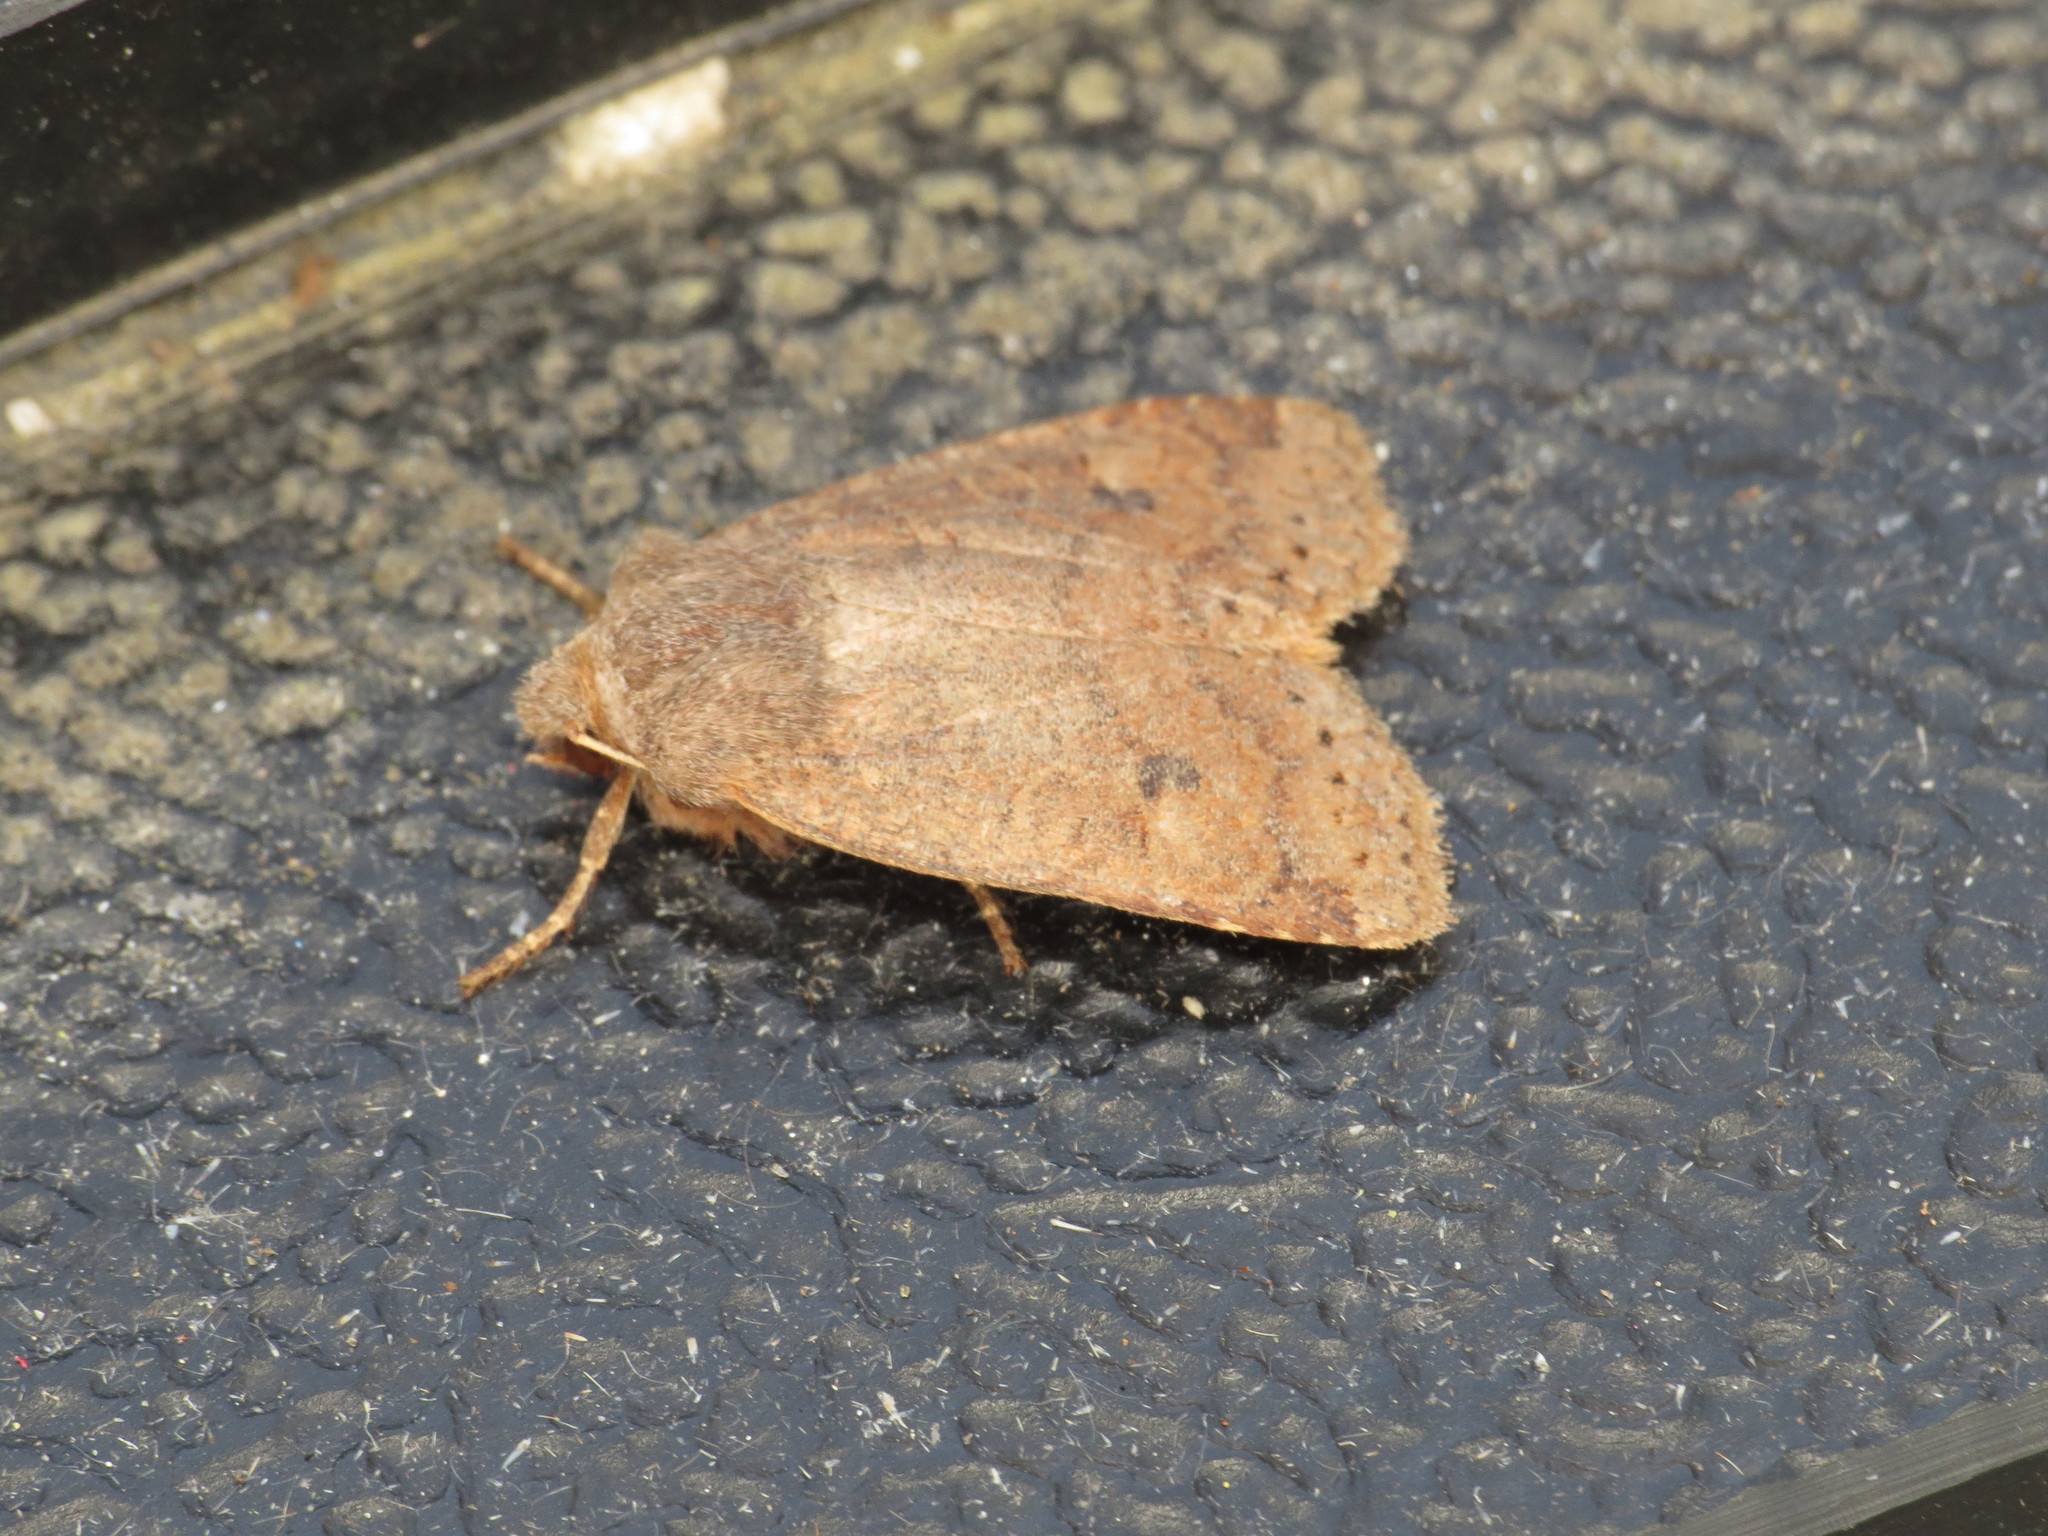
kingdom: Animalia
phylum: Arthropoda
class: Insecta
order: Lepidoptera
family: Noctuidae
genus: Conistra
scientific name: Conistra vaccinii
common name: Chestnut
